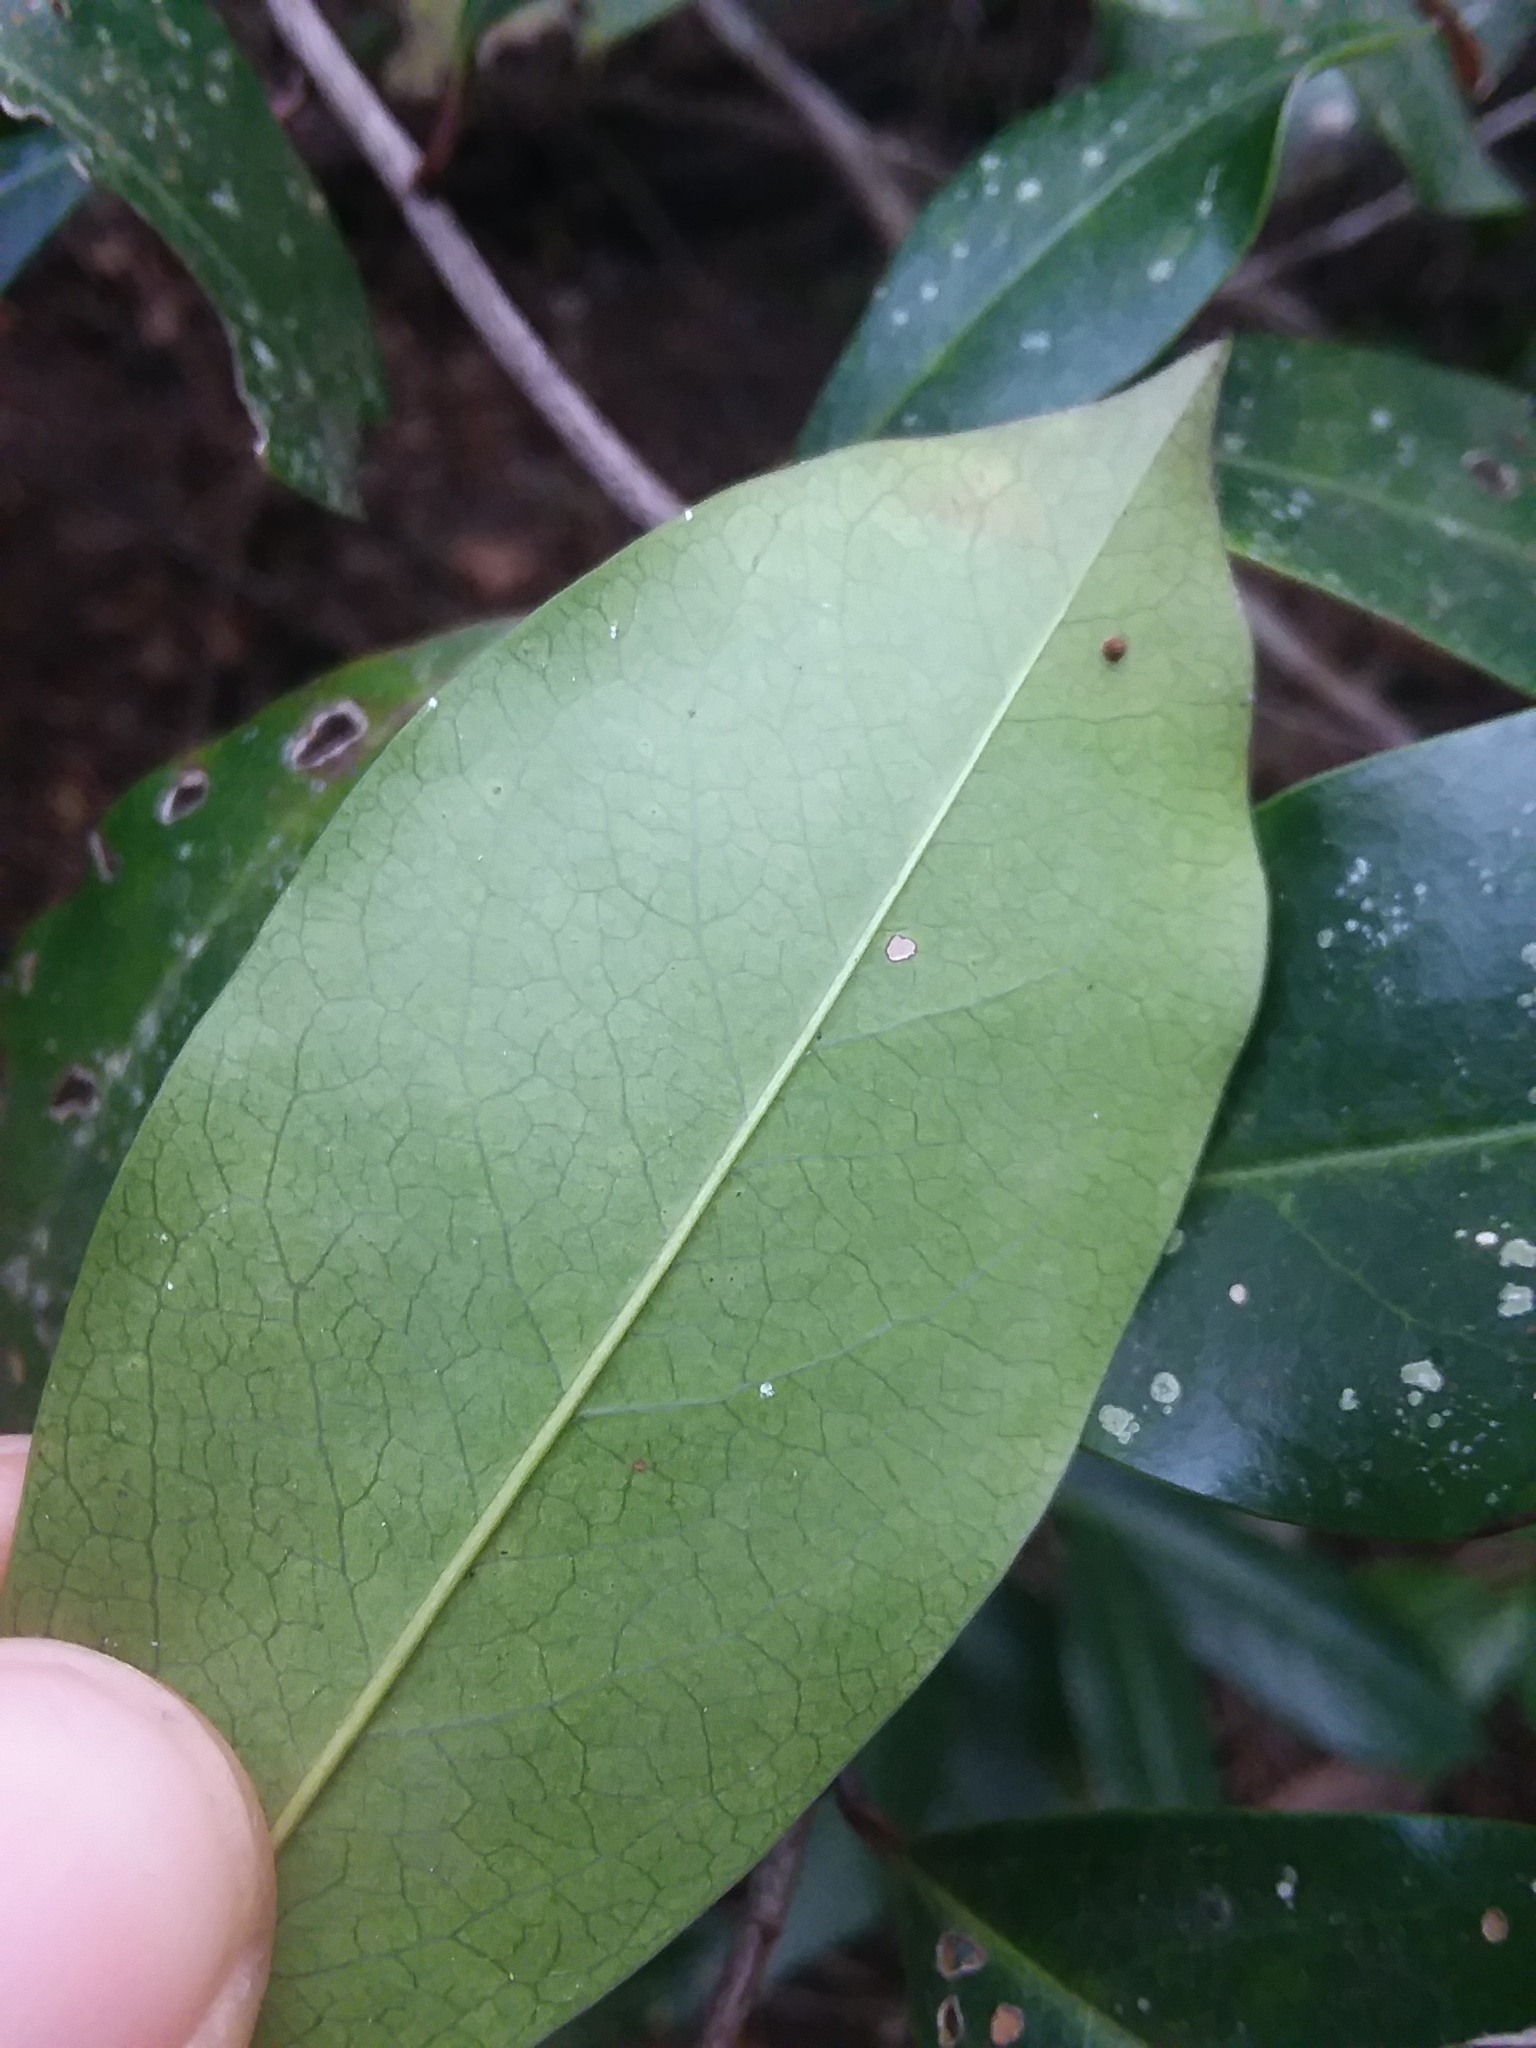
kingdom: Plantae
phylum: Tracheophyta
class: Magnoliopsida
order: Rosales
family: Rosaceae
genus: Prunus
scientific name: Prunus caroliniana
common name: Carolina laurel cherry
